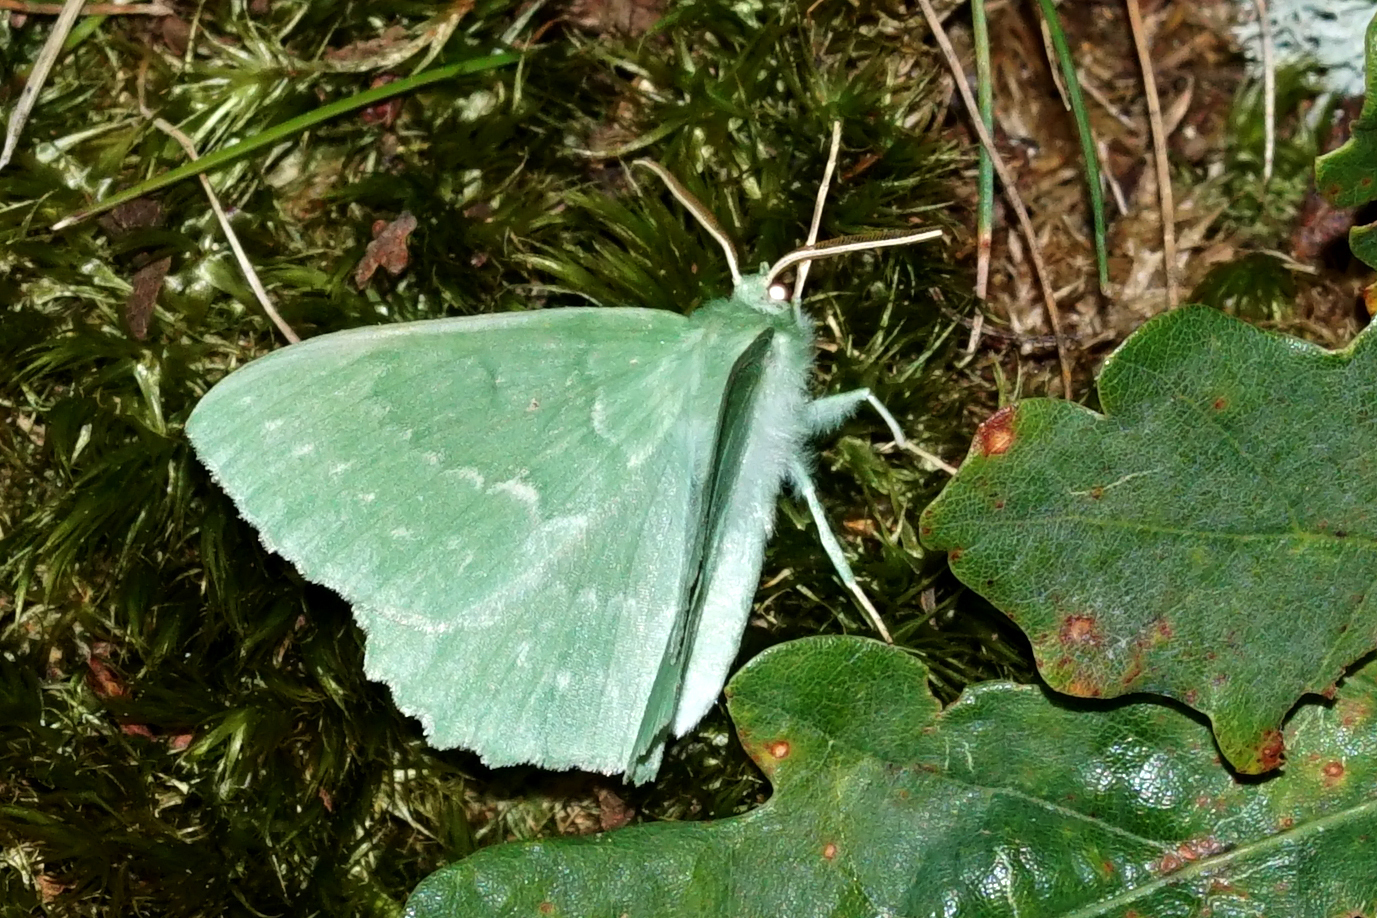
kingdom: Animalia
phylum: Arthropoda
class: Insecta
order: Lepidoptera
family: Geometridae
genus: Geometra
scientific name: Geometra papilionaria
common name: Large emerald
